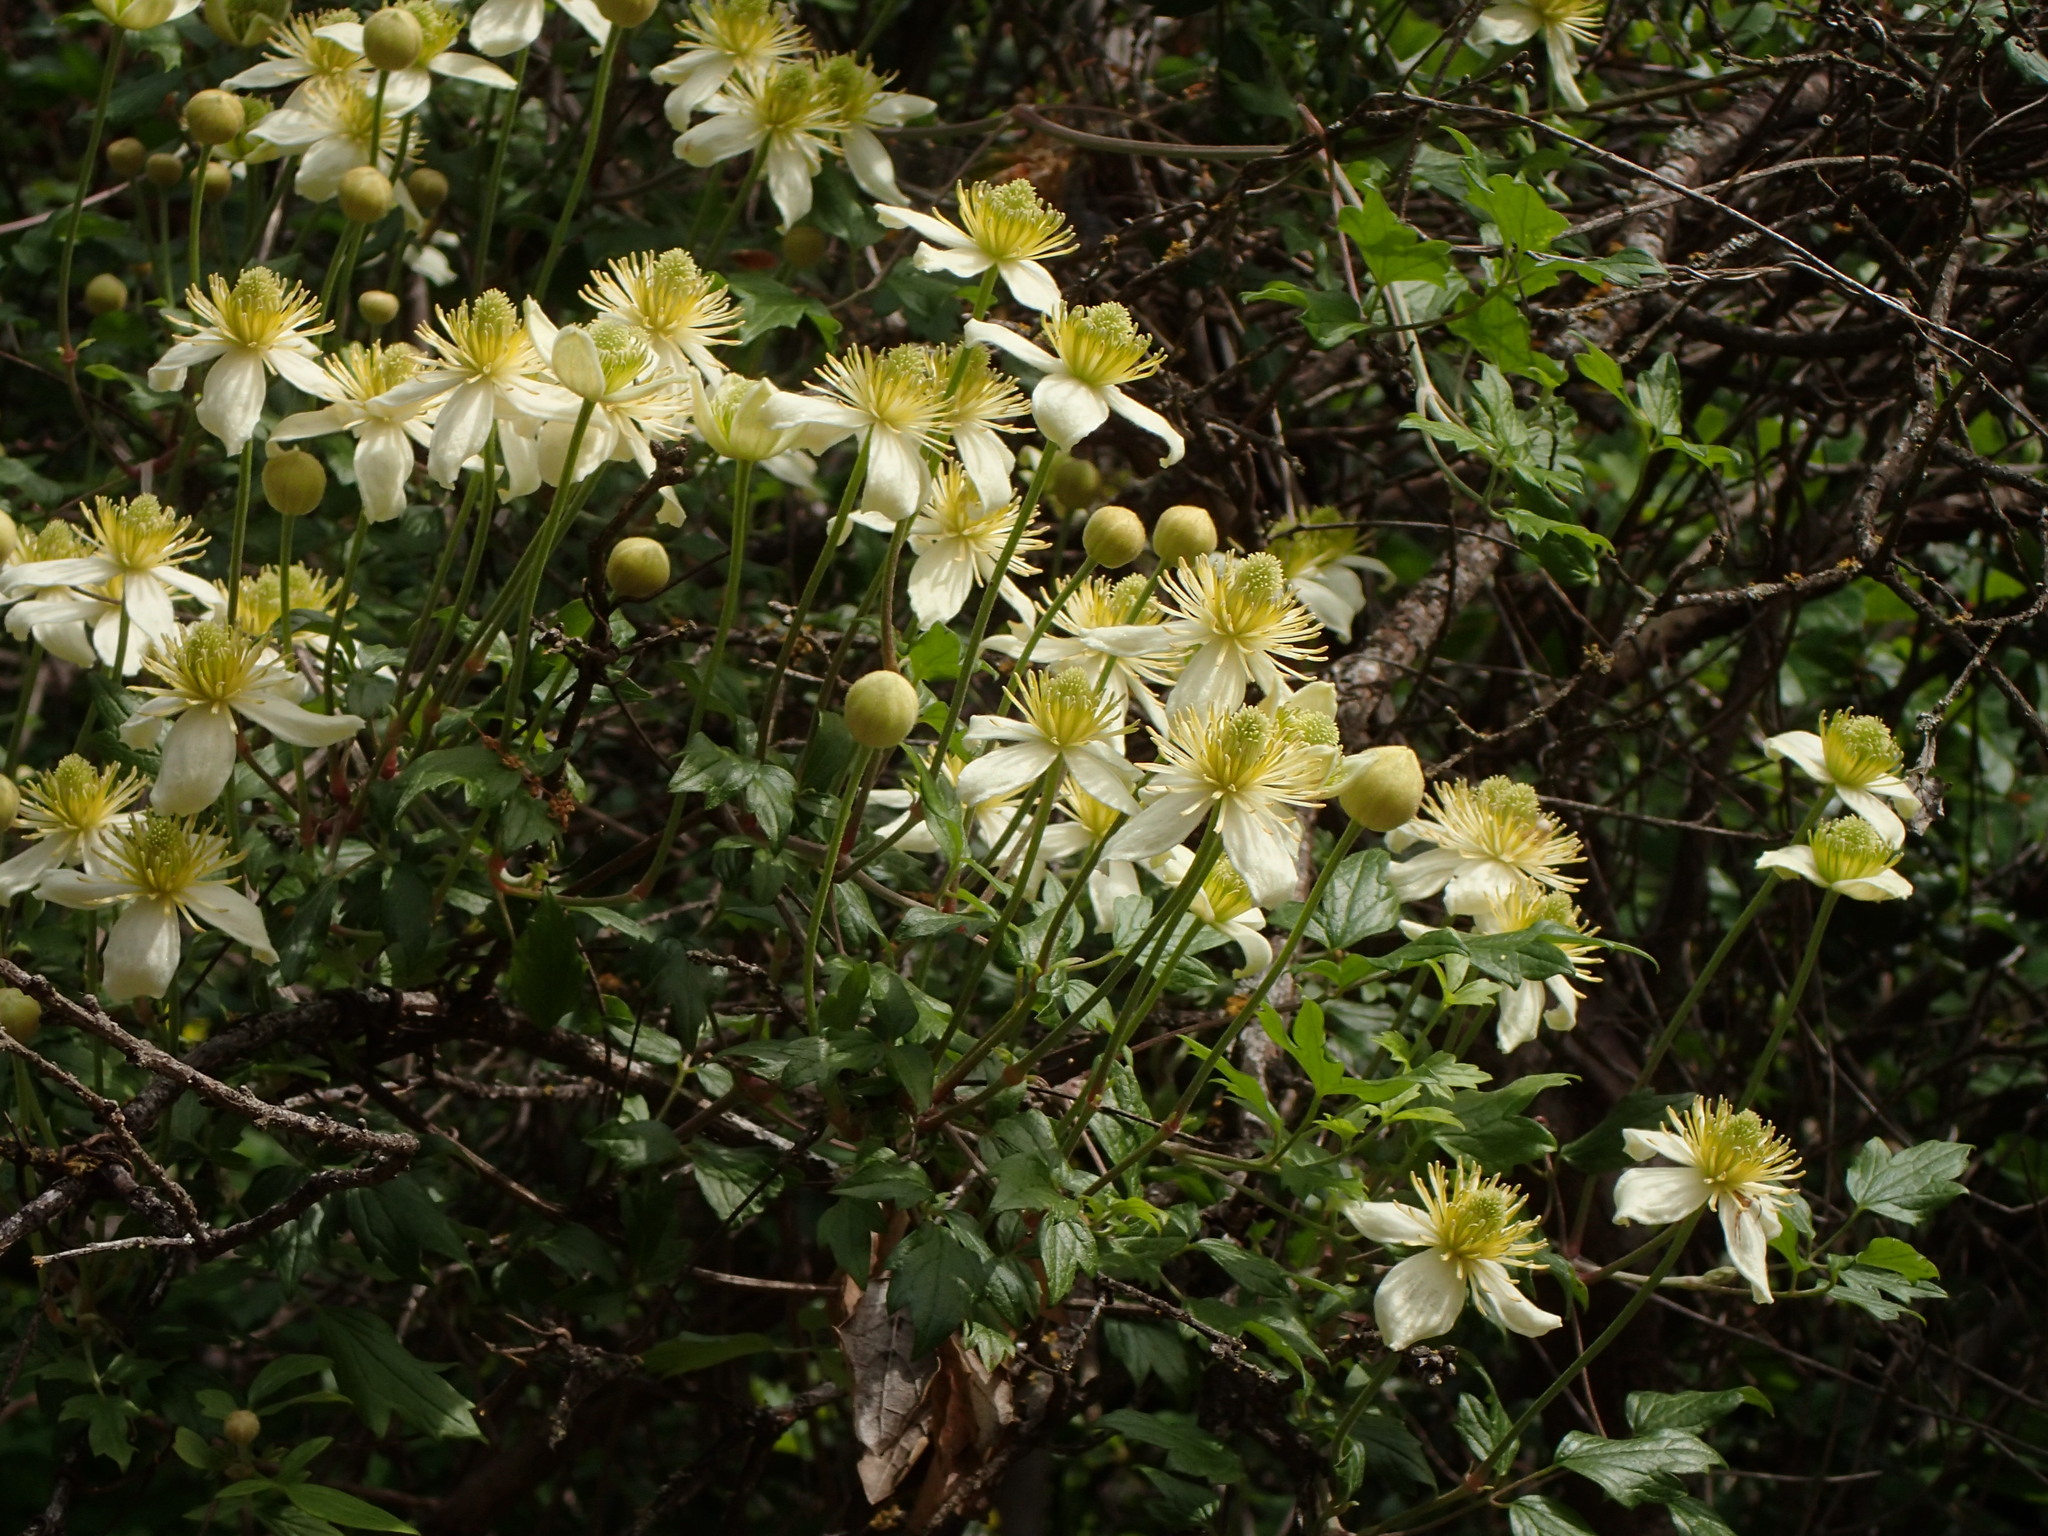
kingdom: Plantae
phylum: Tracheophyta
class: Magnoliopsida
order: Ranunculales
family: Ranunculaceae
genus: Clematis
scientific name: Clematis lasiantha
